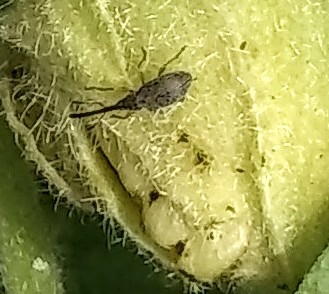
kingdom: Animalia
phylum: Arthropoda
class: Insecta
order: Coleoptera
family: Brentidae
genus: Rhopalapion
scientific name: Rhopalapion longirostre
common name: Hollyhock weevil
